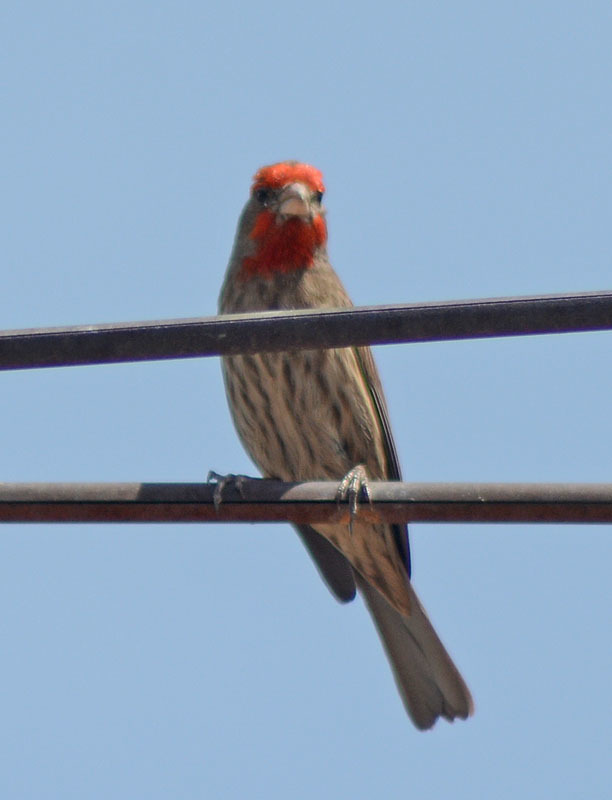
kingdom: Animalia
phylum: Chordata
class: Aves
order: Passeriformes
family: Fringillidae
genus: Haemorhous
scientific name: Haemorhous mexicanus
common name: House finch
